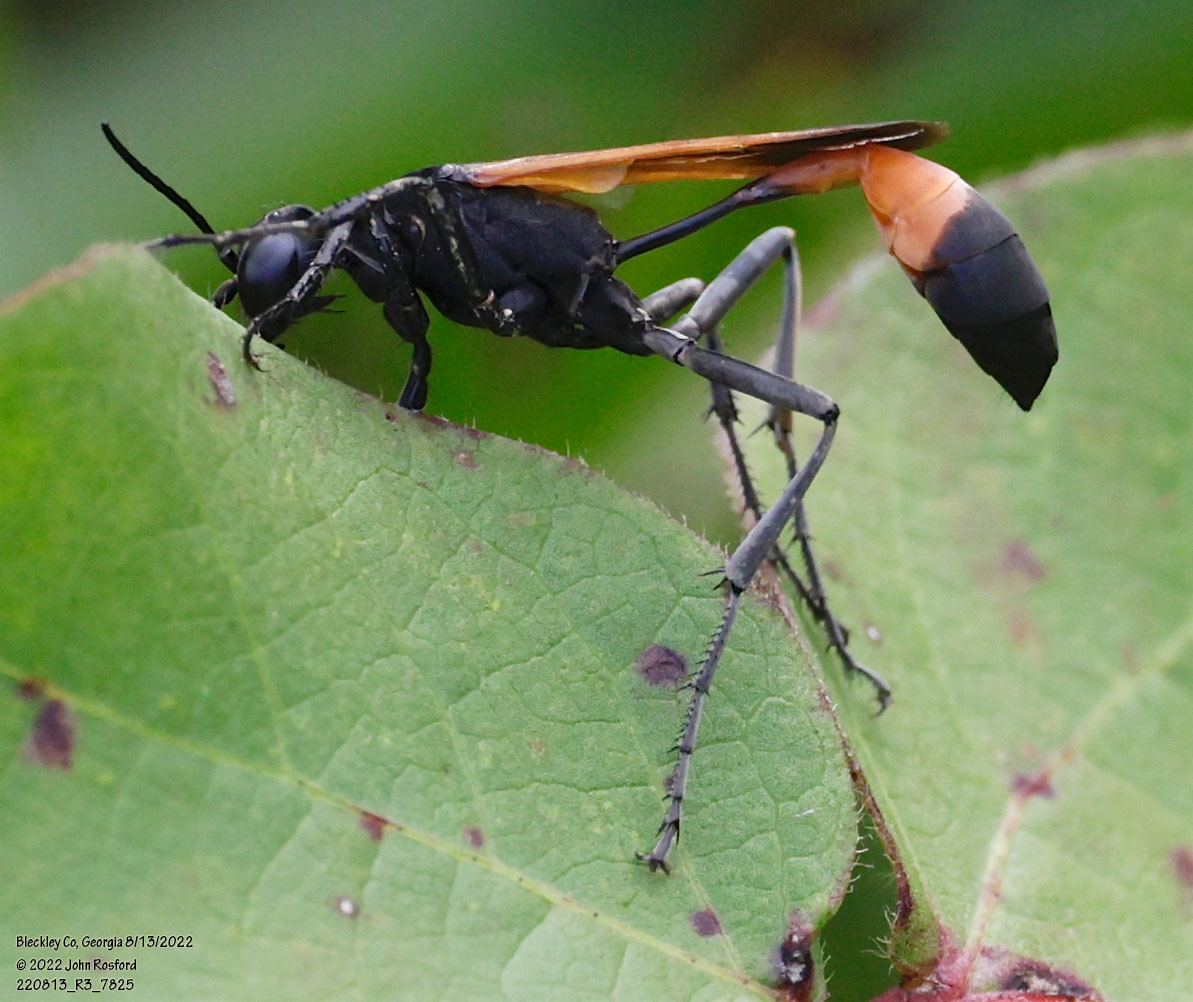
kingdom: Animalia
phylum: Arthropoda
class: Insecta
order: Hymenoptera
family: Sphecidae
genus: Ammophila
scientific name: Ammophila pictipennis
